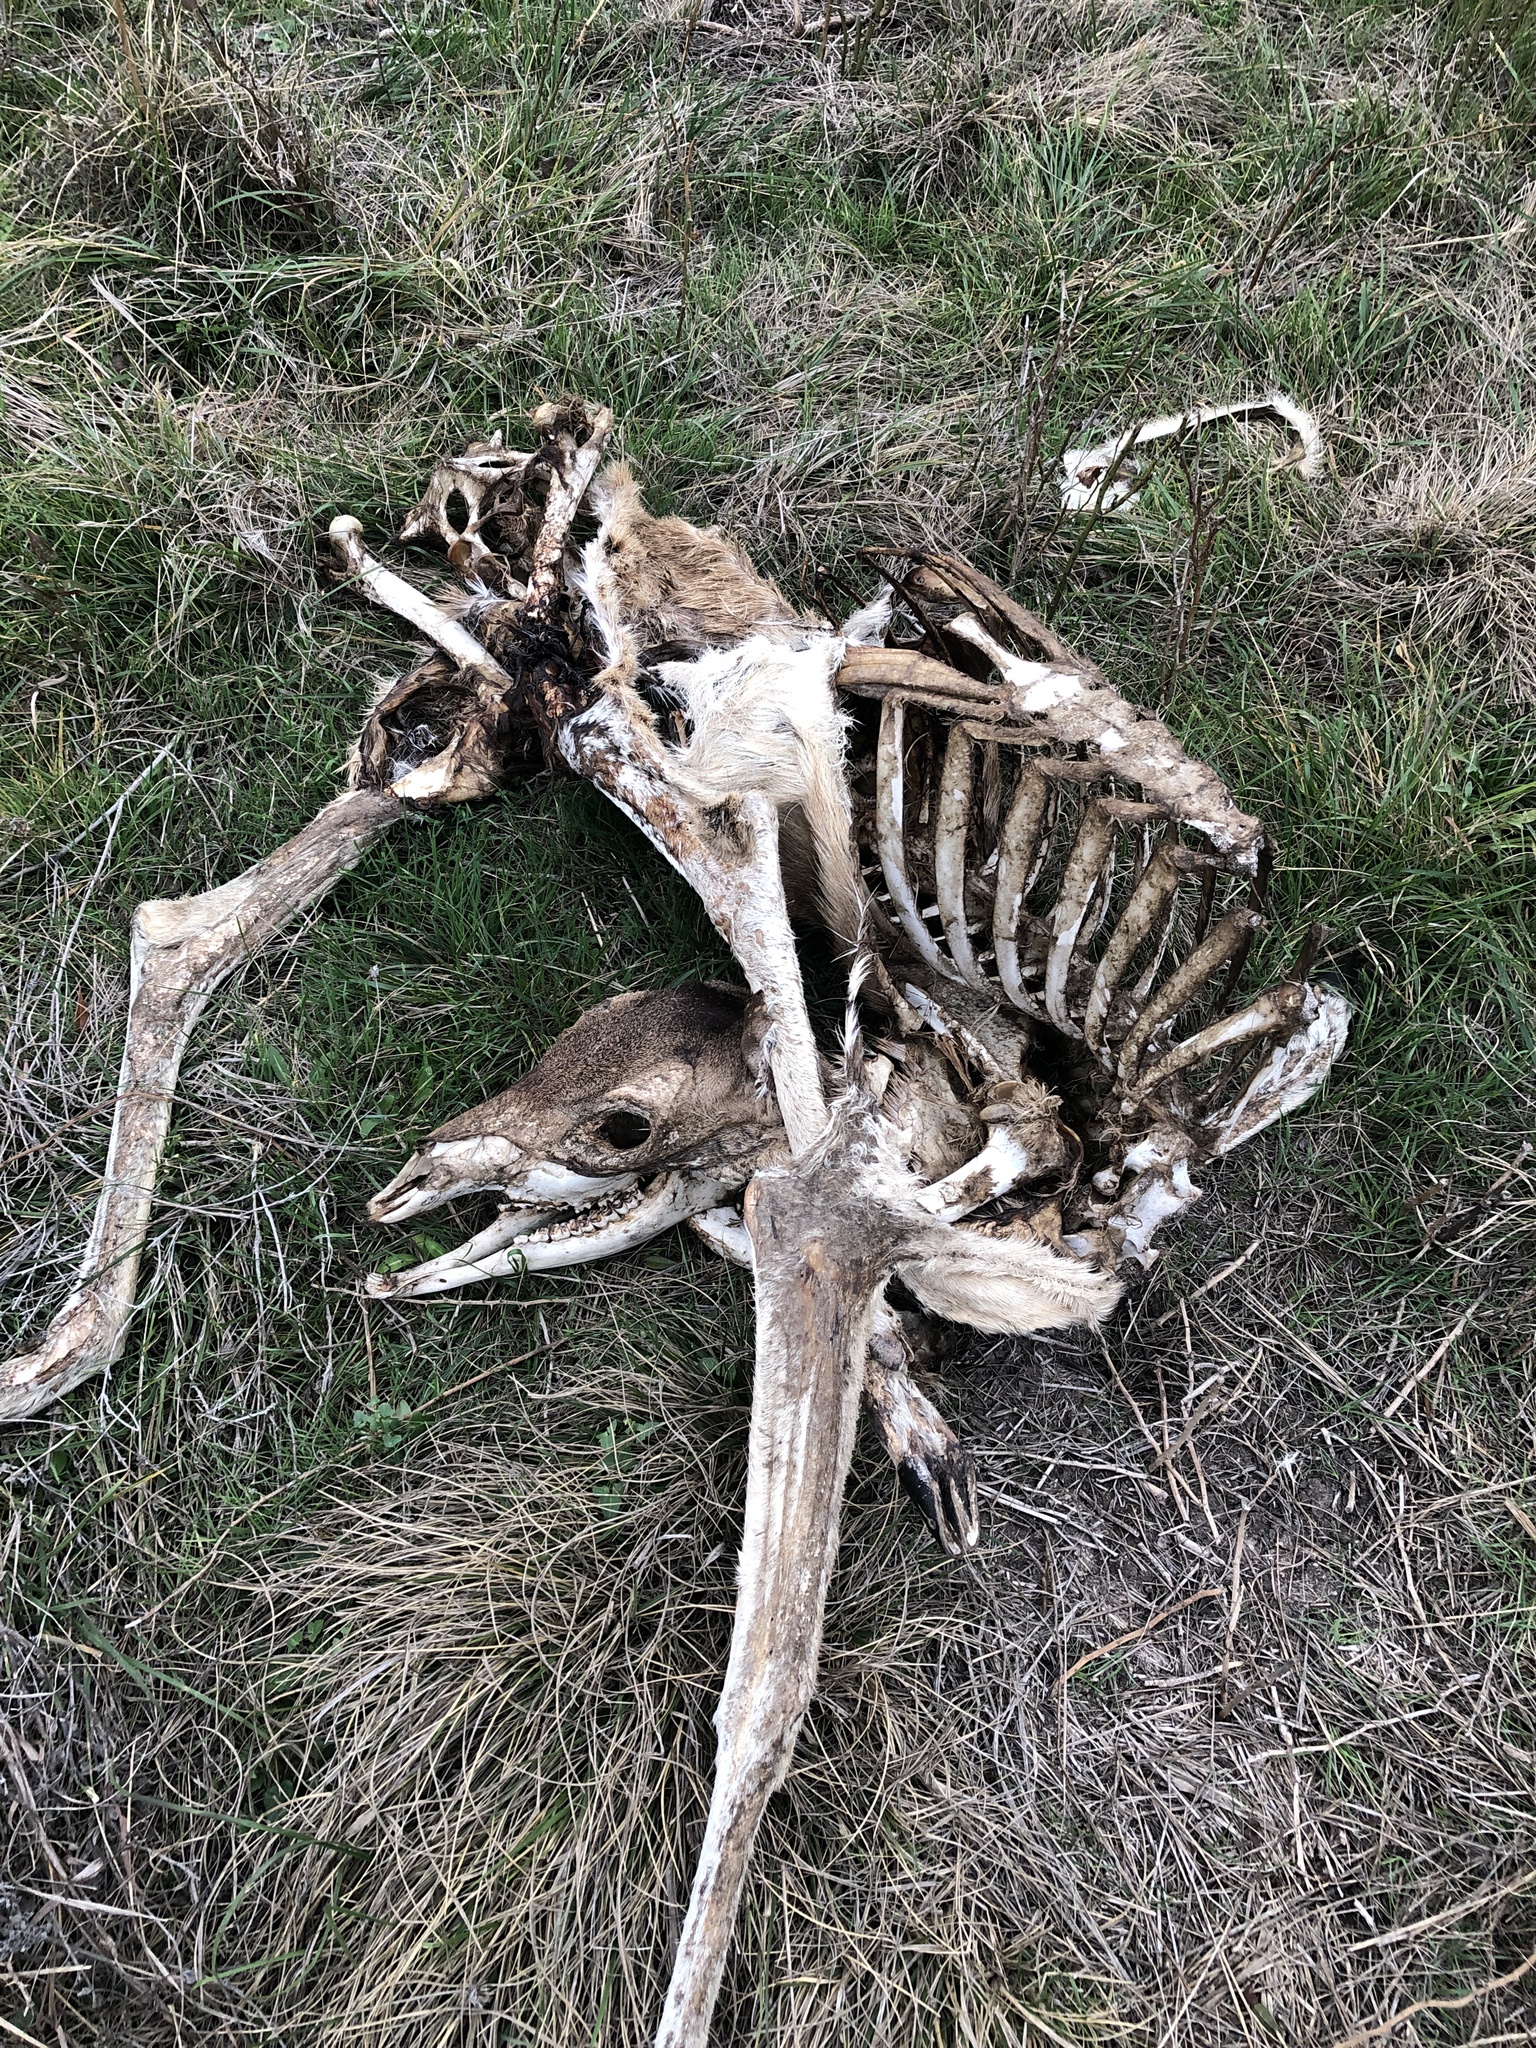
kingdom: Animalia
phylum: Chordata
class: Mammalia
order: Artiodactyla
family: Cervidae
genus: Odocoileus
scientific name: Odocoileus virginianus
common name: White-tailed deer
